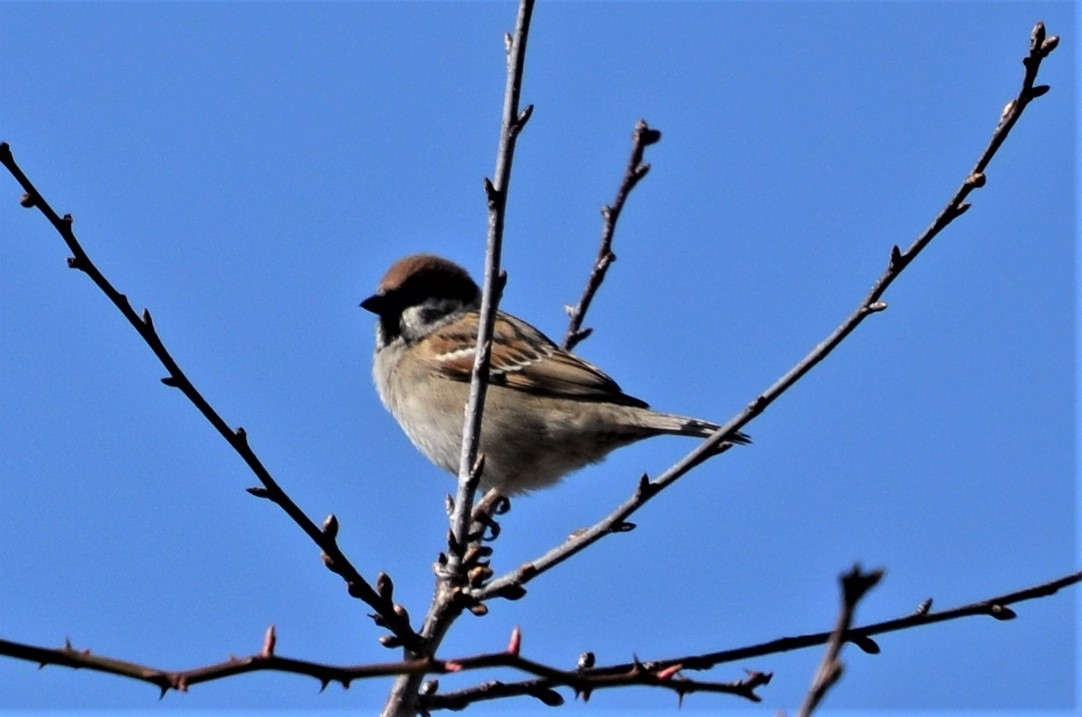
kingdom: Animalia
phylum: Chordata
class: Aves
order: Passeriformes
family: Passeridae
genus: Passer
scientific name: Passer montanus
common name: Eurasian tree sparrow
